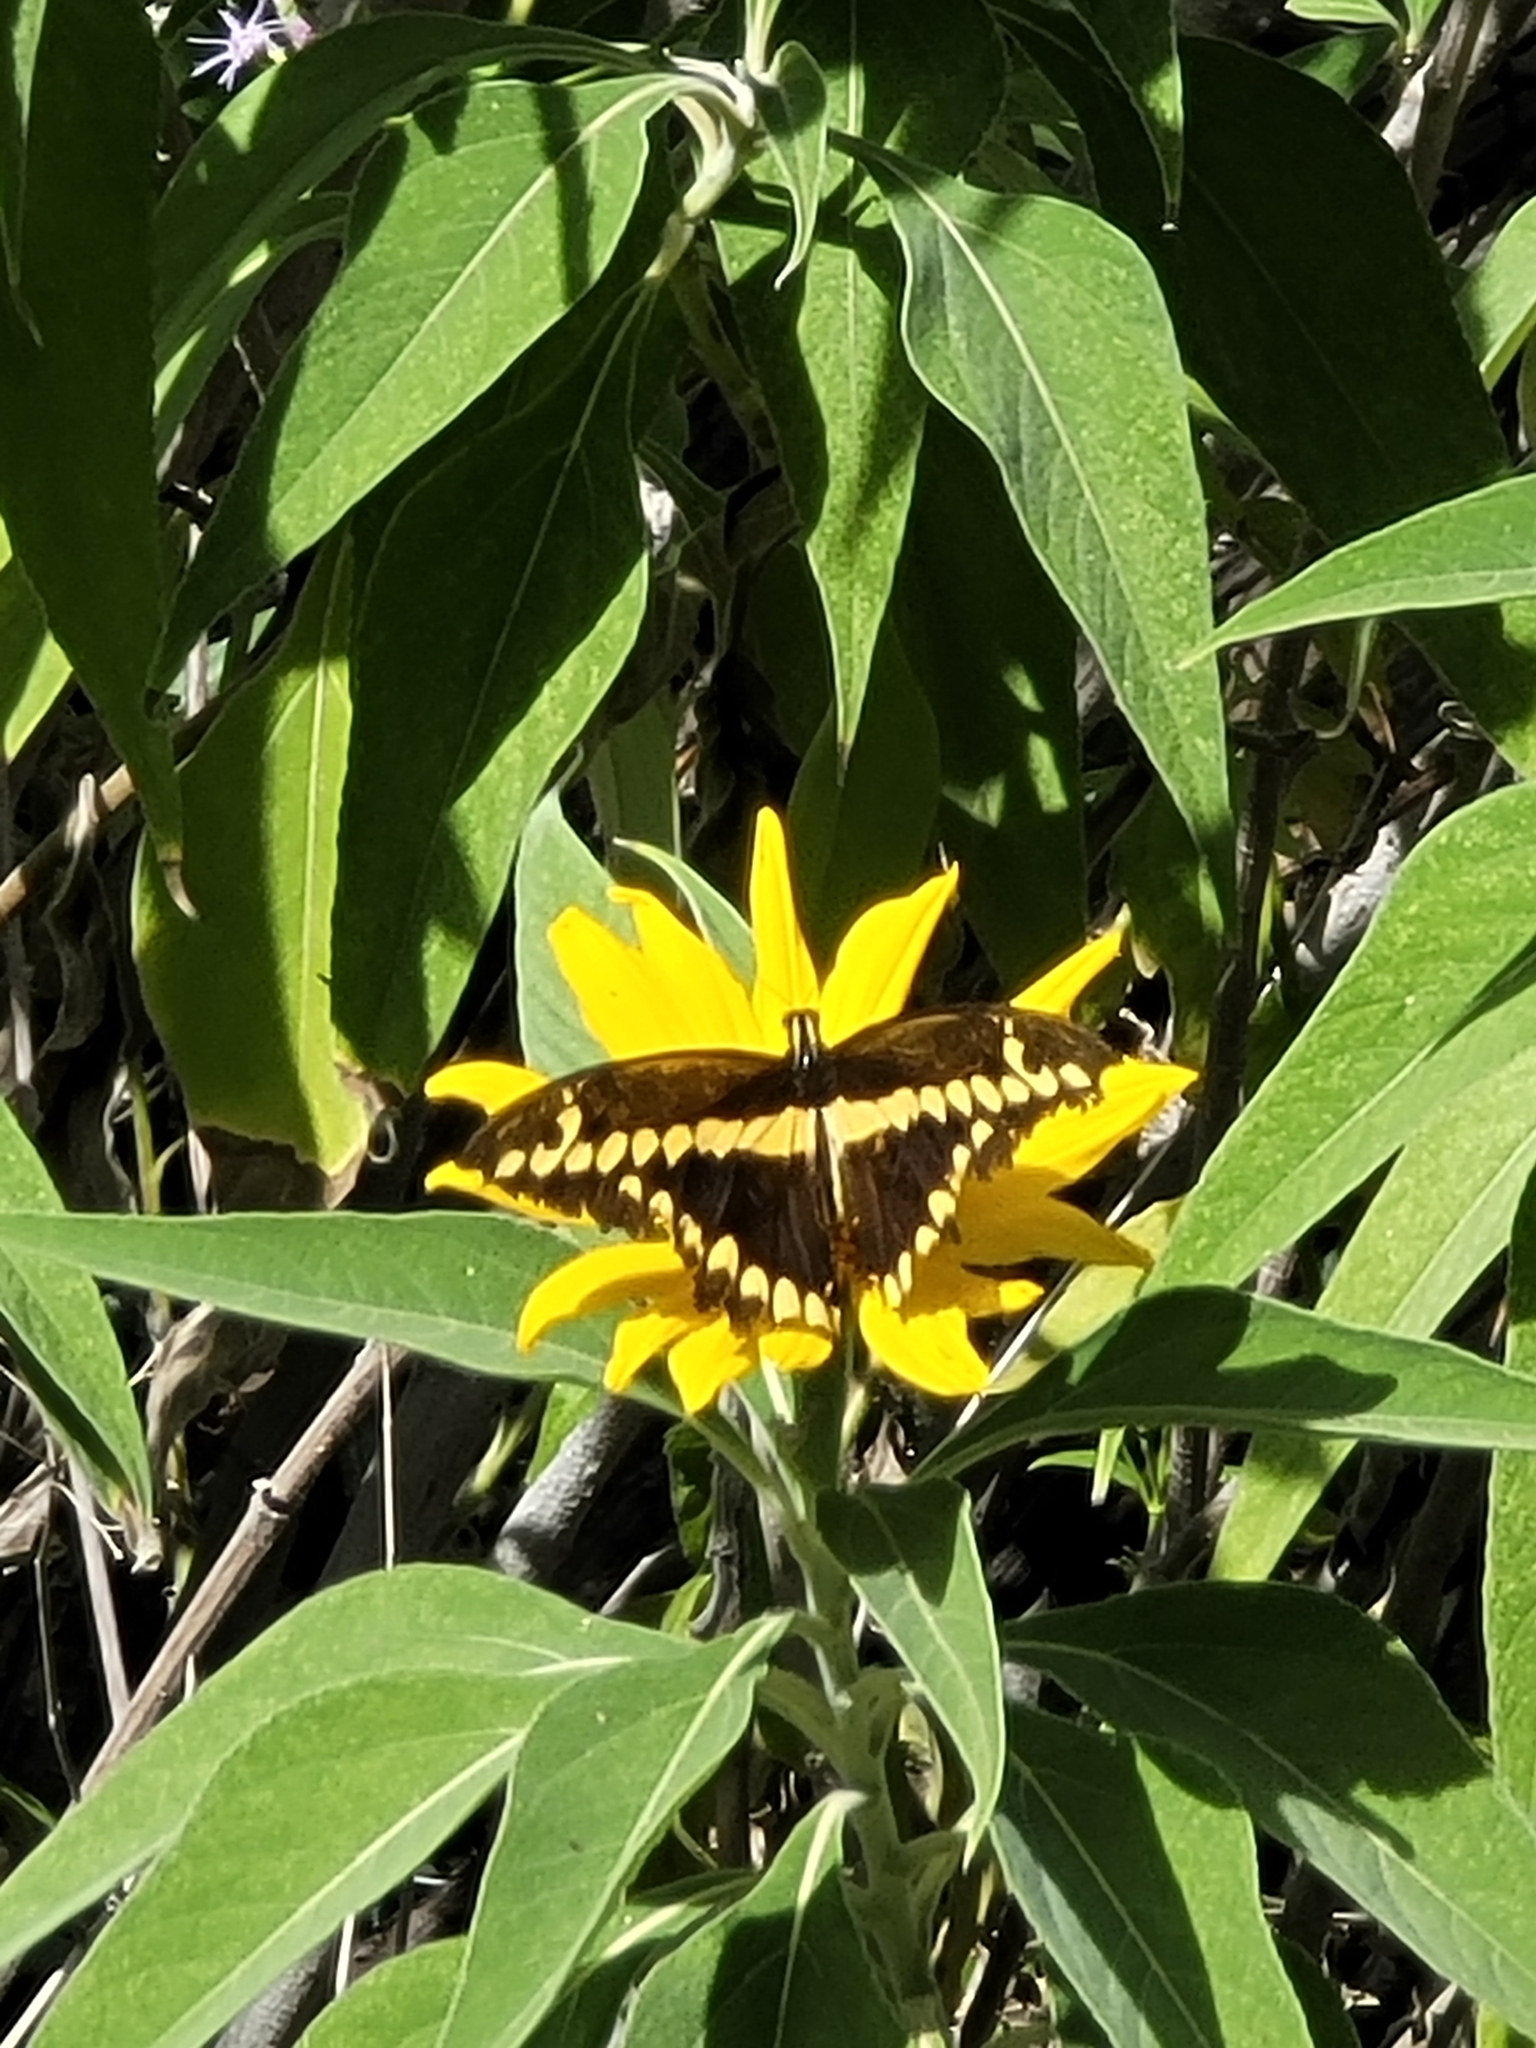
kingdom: Animalia
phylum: Arthropoda
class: Insecta
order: Lepidoptera
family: Papilionidae
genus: Papilio
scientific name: Papilio rumiko
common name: Western giant swallowtail
